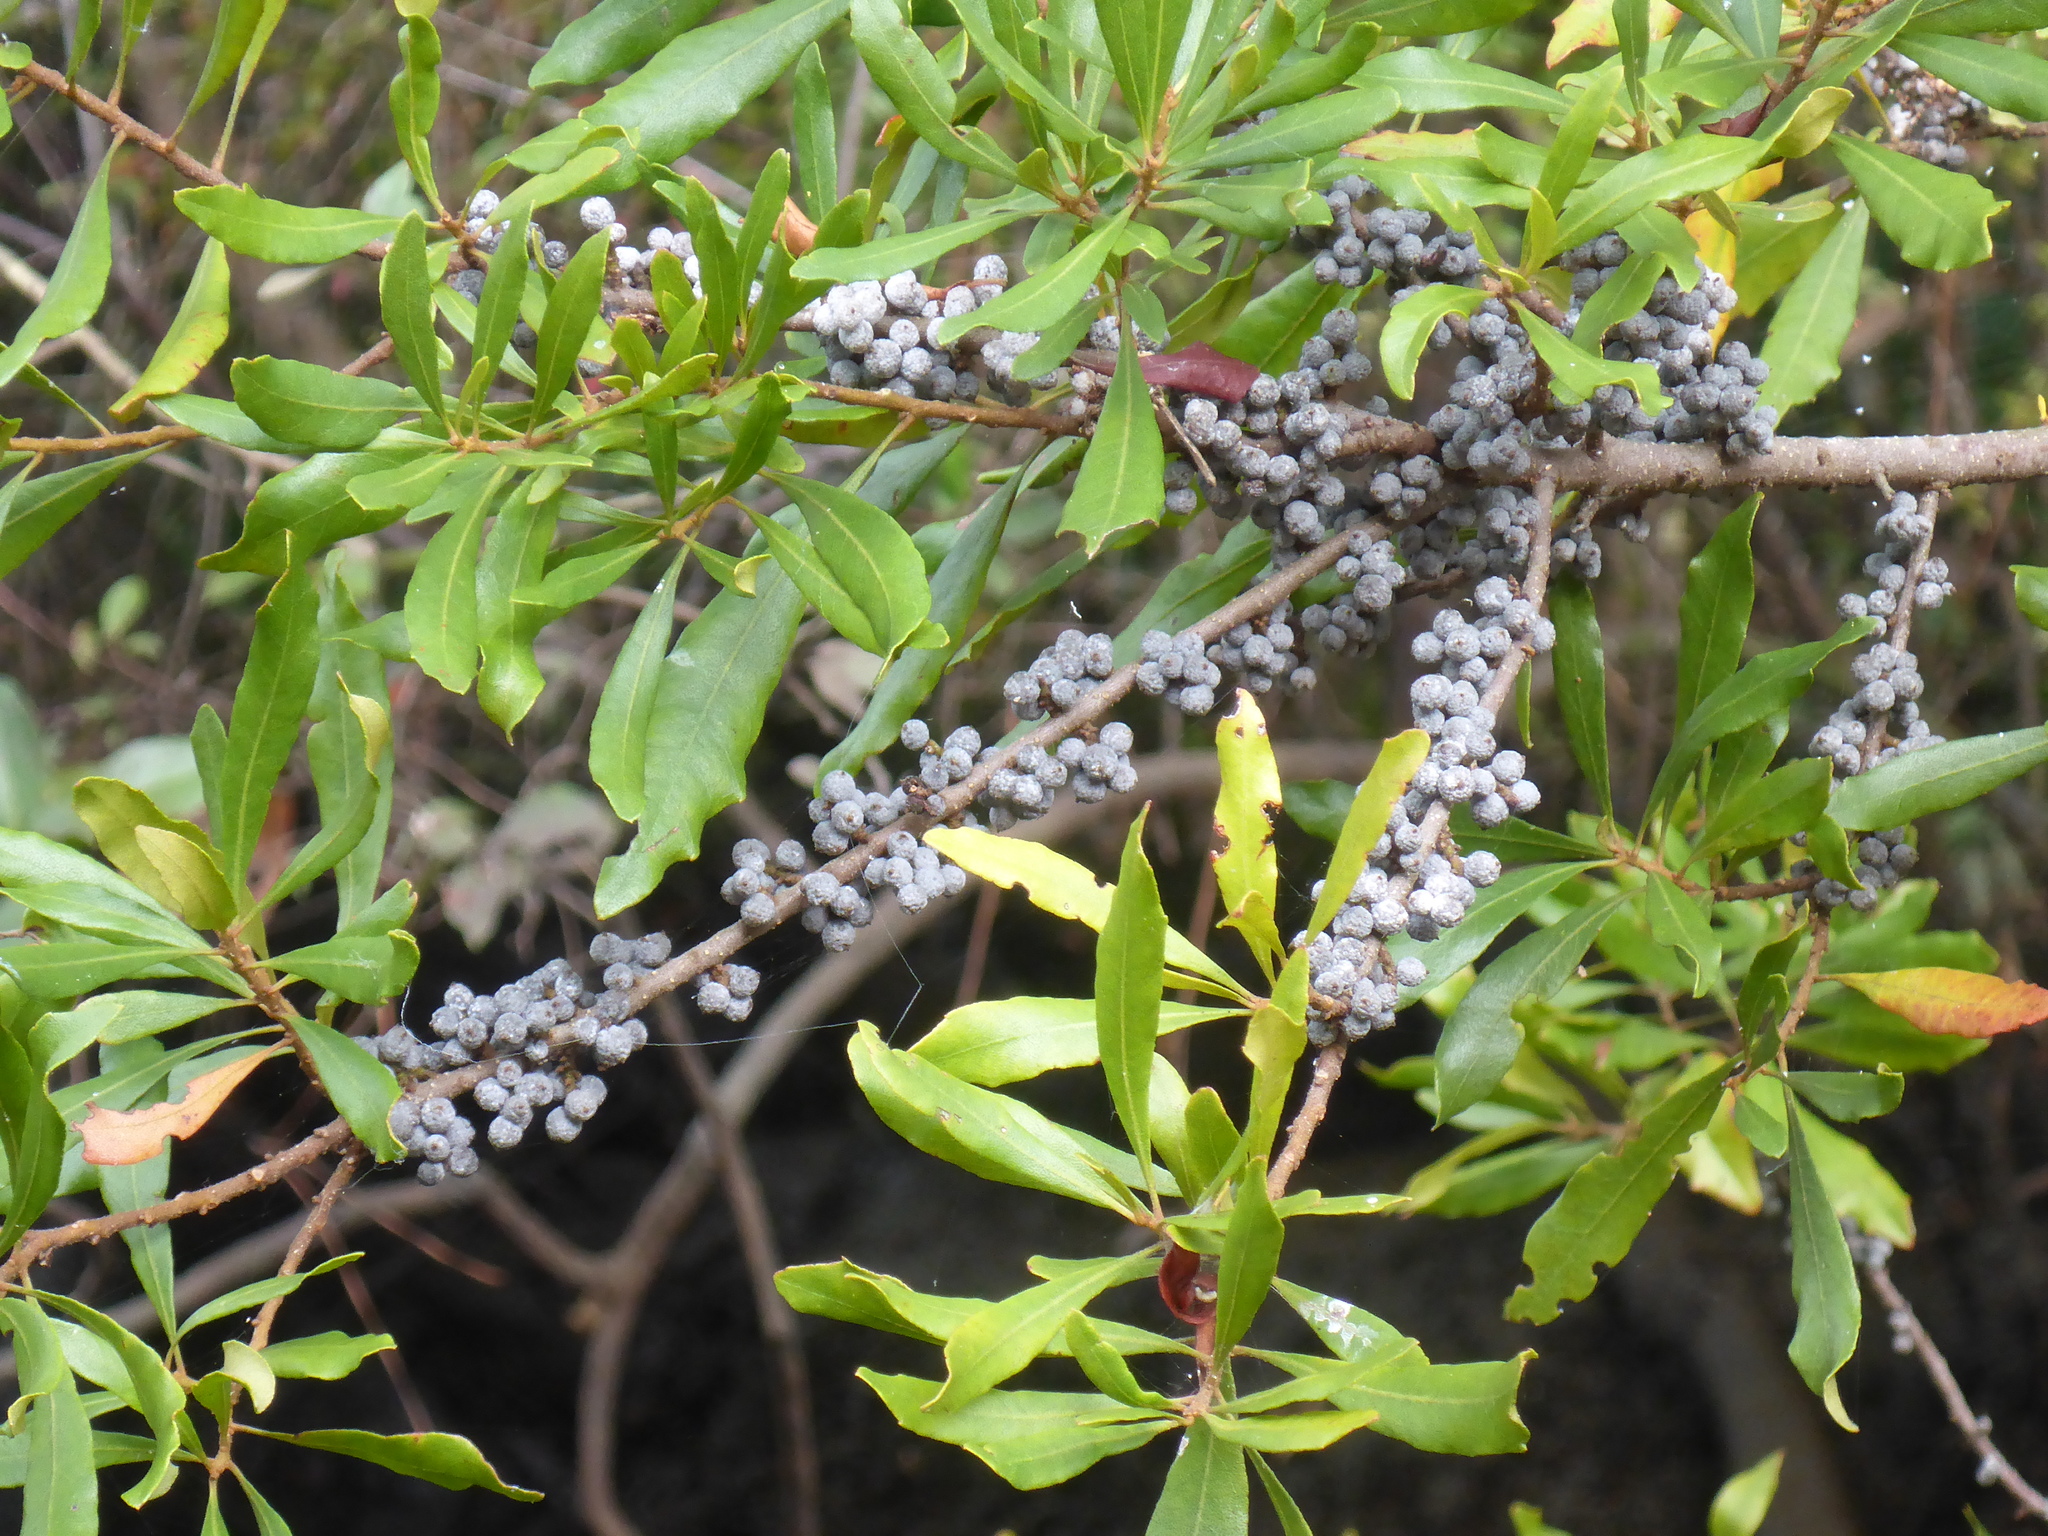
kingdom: Plantae
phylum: Tracheophyta
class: Magnoliopsida
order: Fagales
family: Myricaceae
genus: Morella
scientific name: Morella cerifera
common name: Wax myrtle
